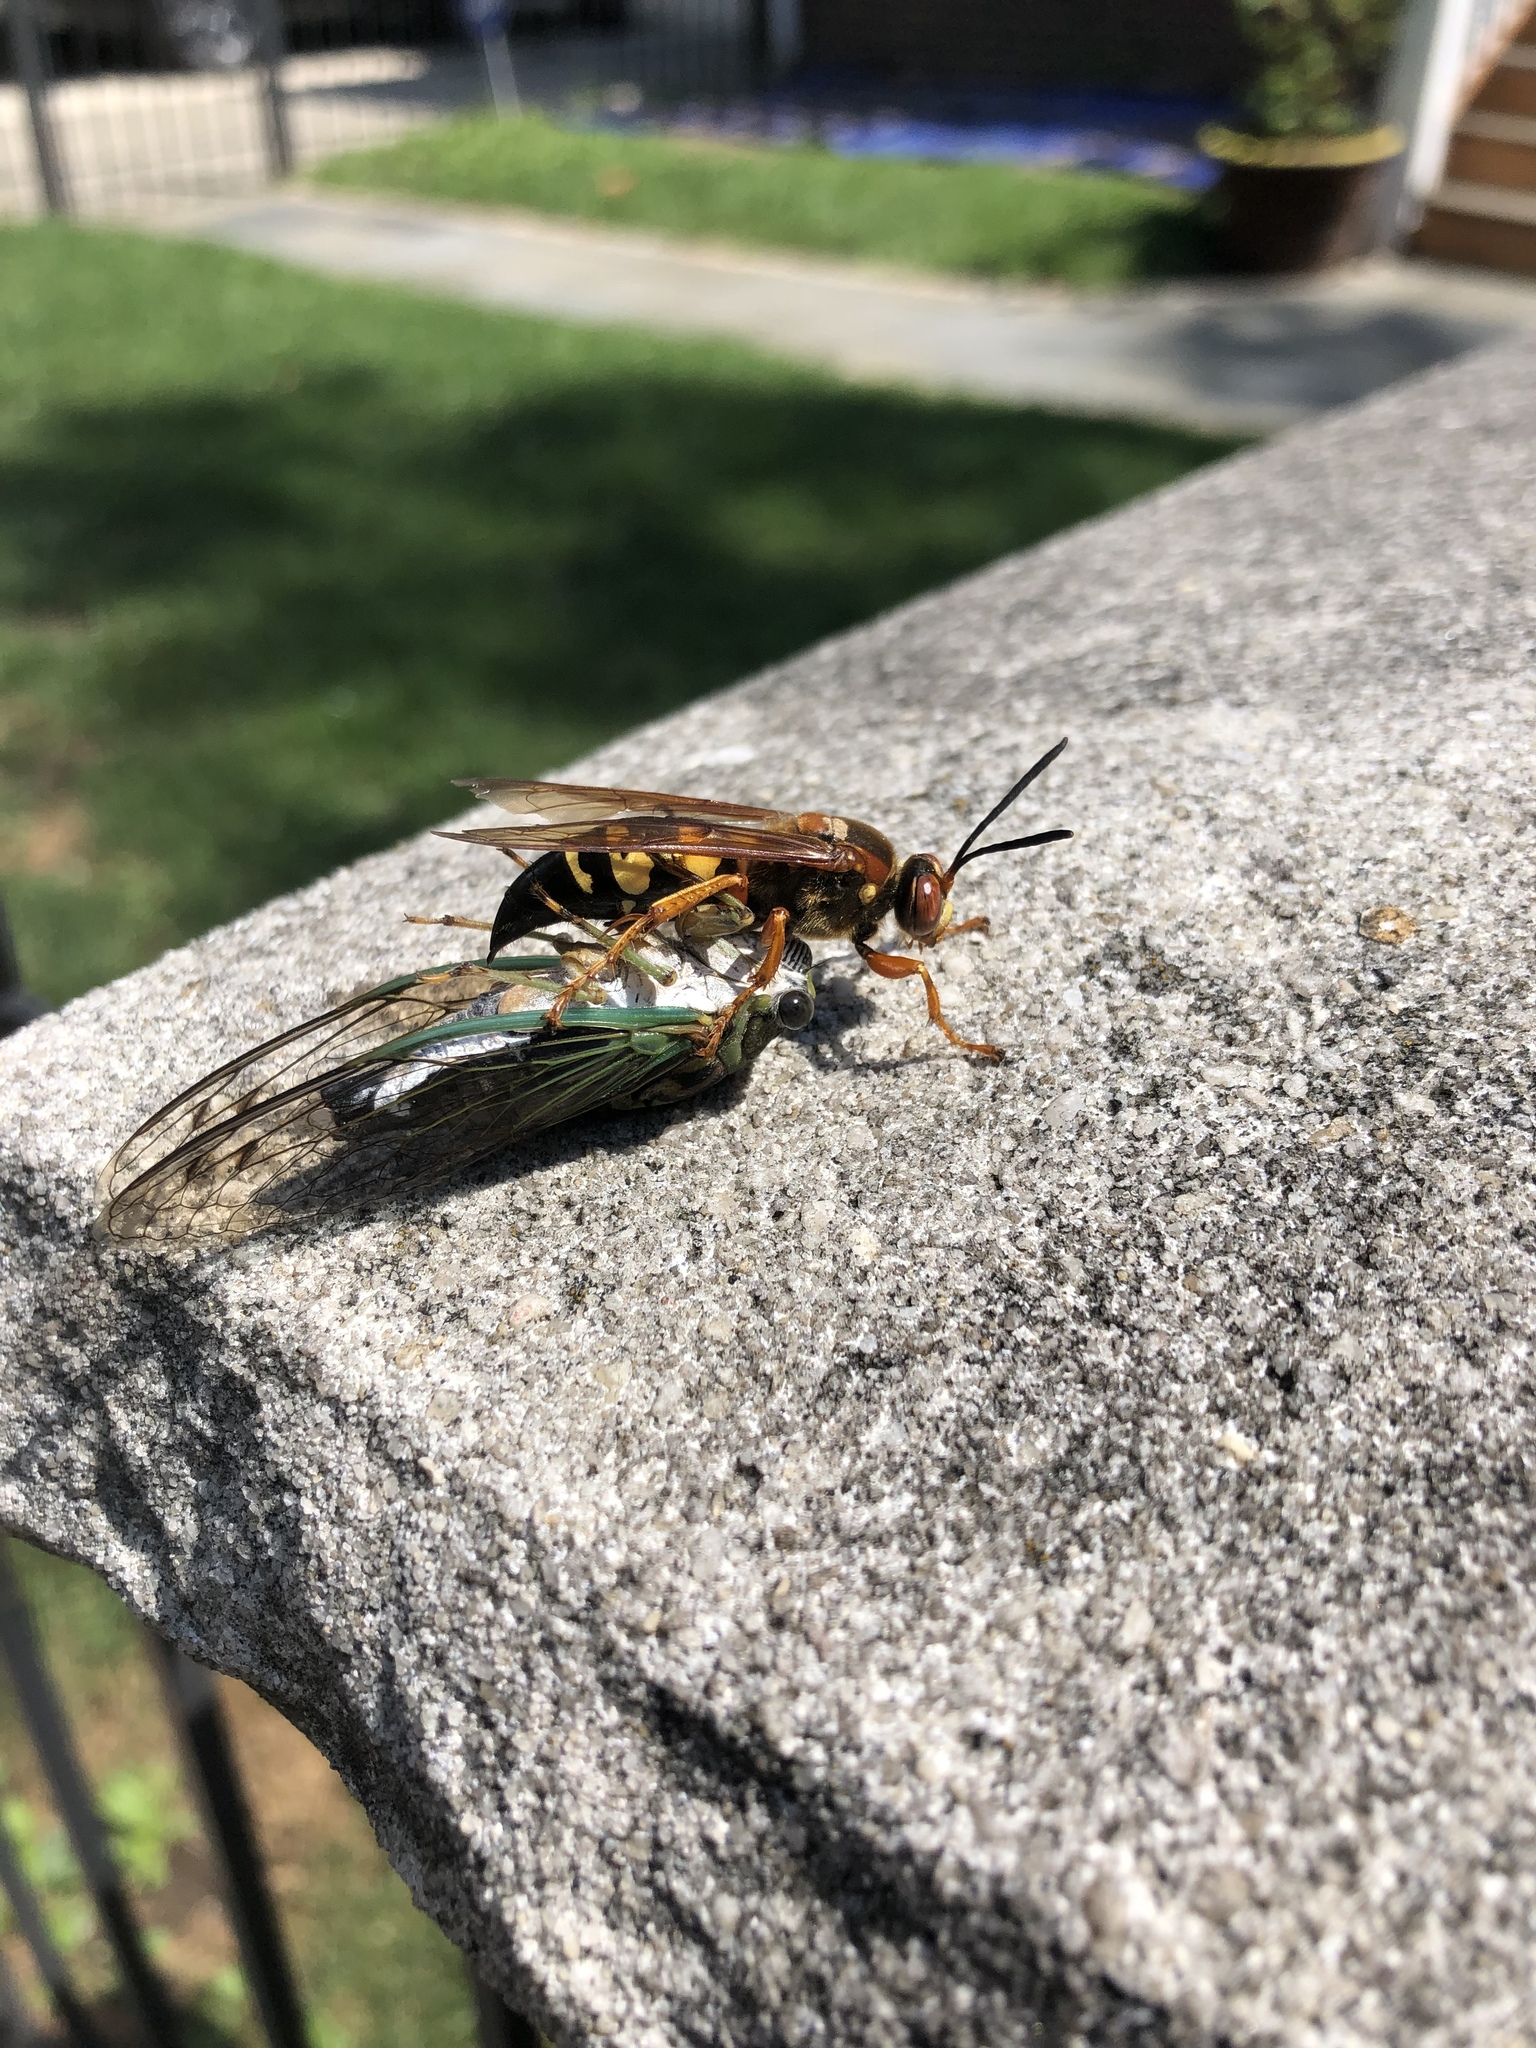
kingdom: Animalia
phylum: Arthropoda
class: Insecta
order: Hymenoptera
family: Crabronidae
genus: Sphecius
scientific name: Sphecius speciosus
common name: Cicada killer
